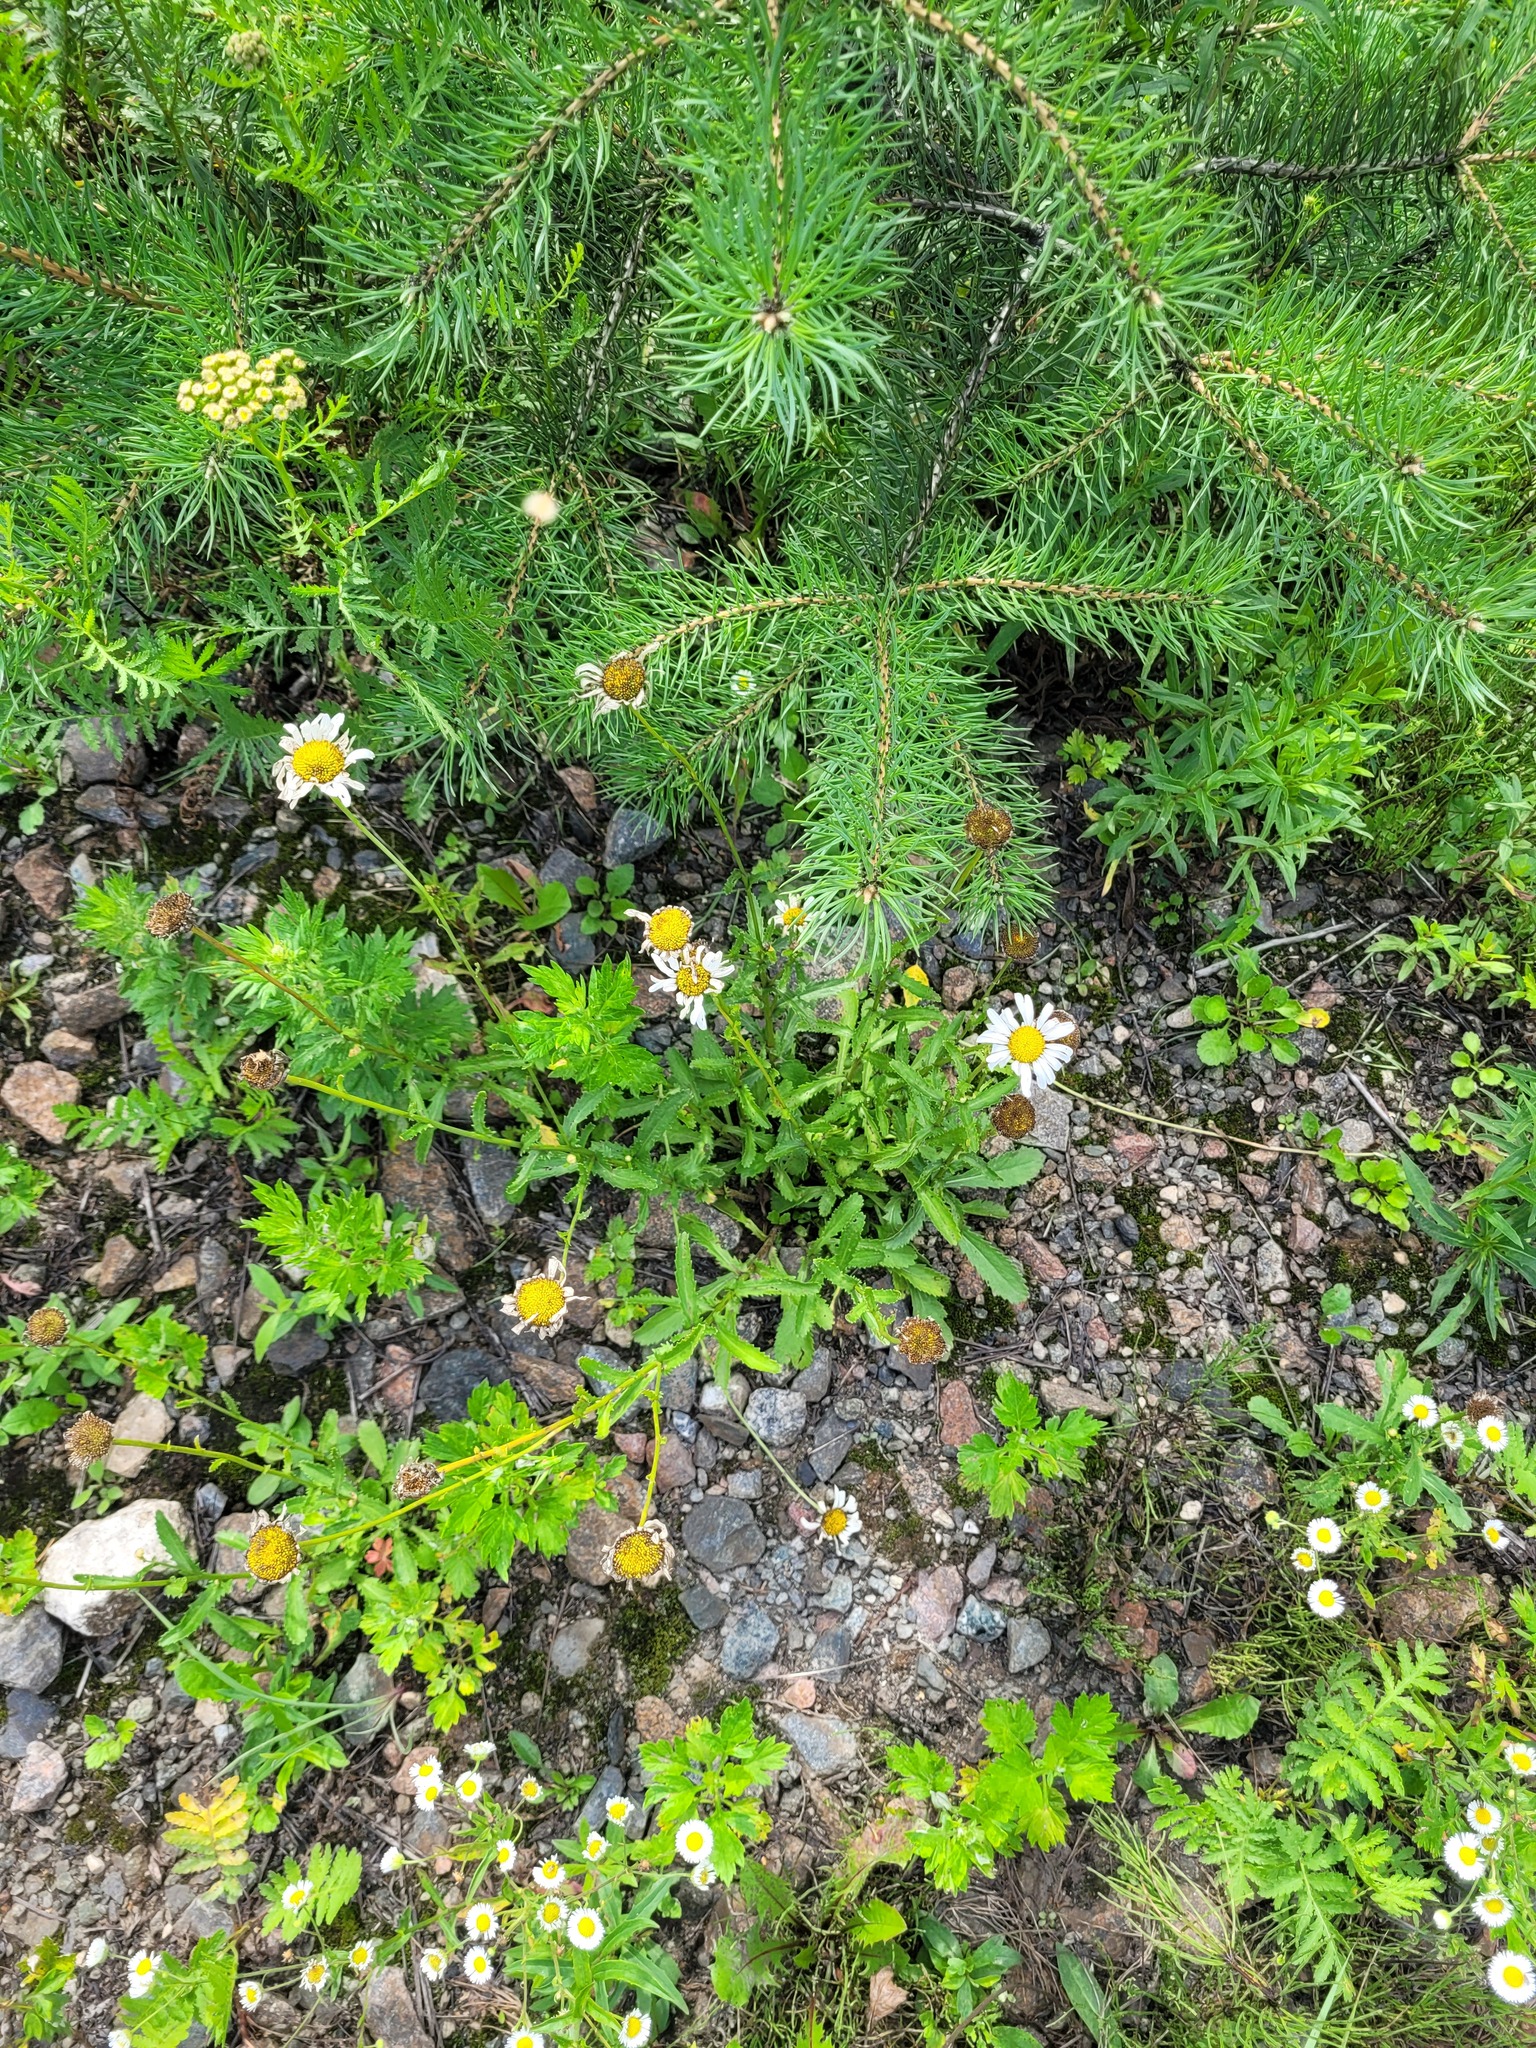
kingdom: Plantae
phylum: Tracheophyta
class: Magnoliopsida
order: Asterales
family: Asteraceae
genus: Leucanthemum
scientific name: Leucanthemum vulgare
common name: Oxeye daisy
